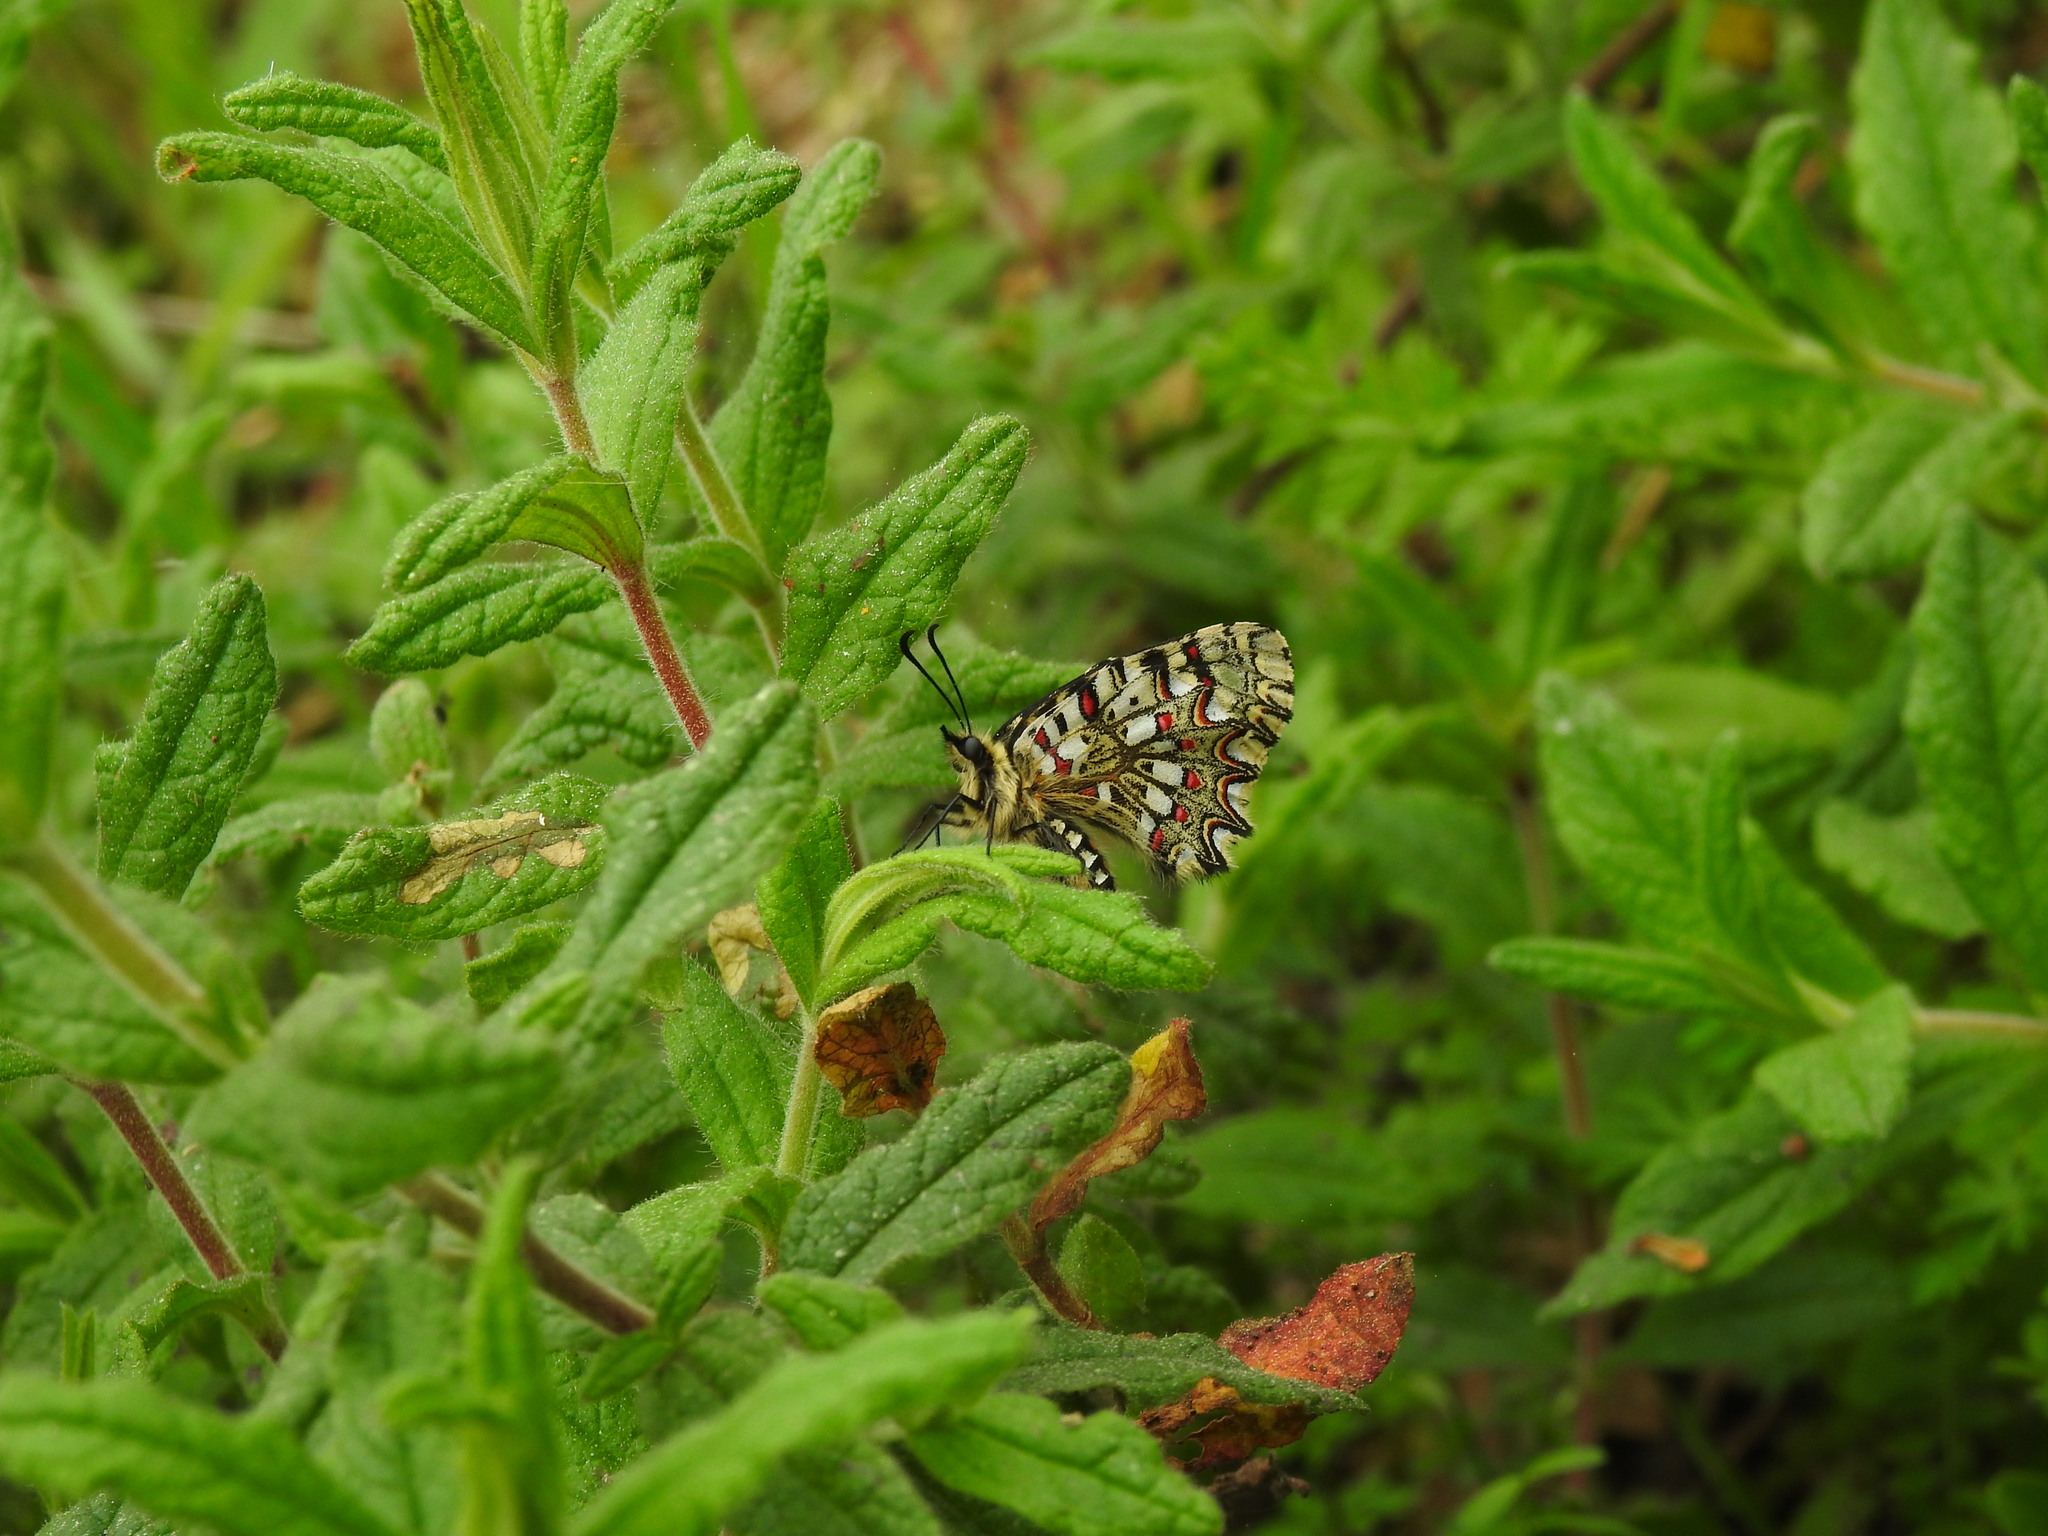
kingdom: Animalia
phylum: Arthropoda
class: Insecta
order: Lepidoptera
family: Papilionidae
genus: Zerynthia
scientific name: Zerynthia rumina
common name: Spanish festoon
